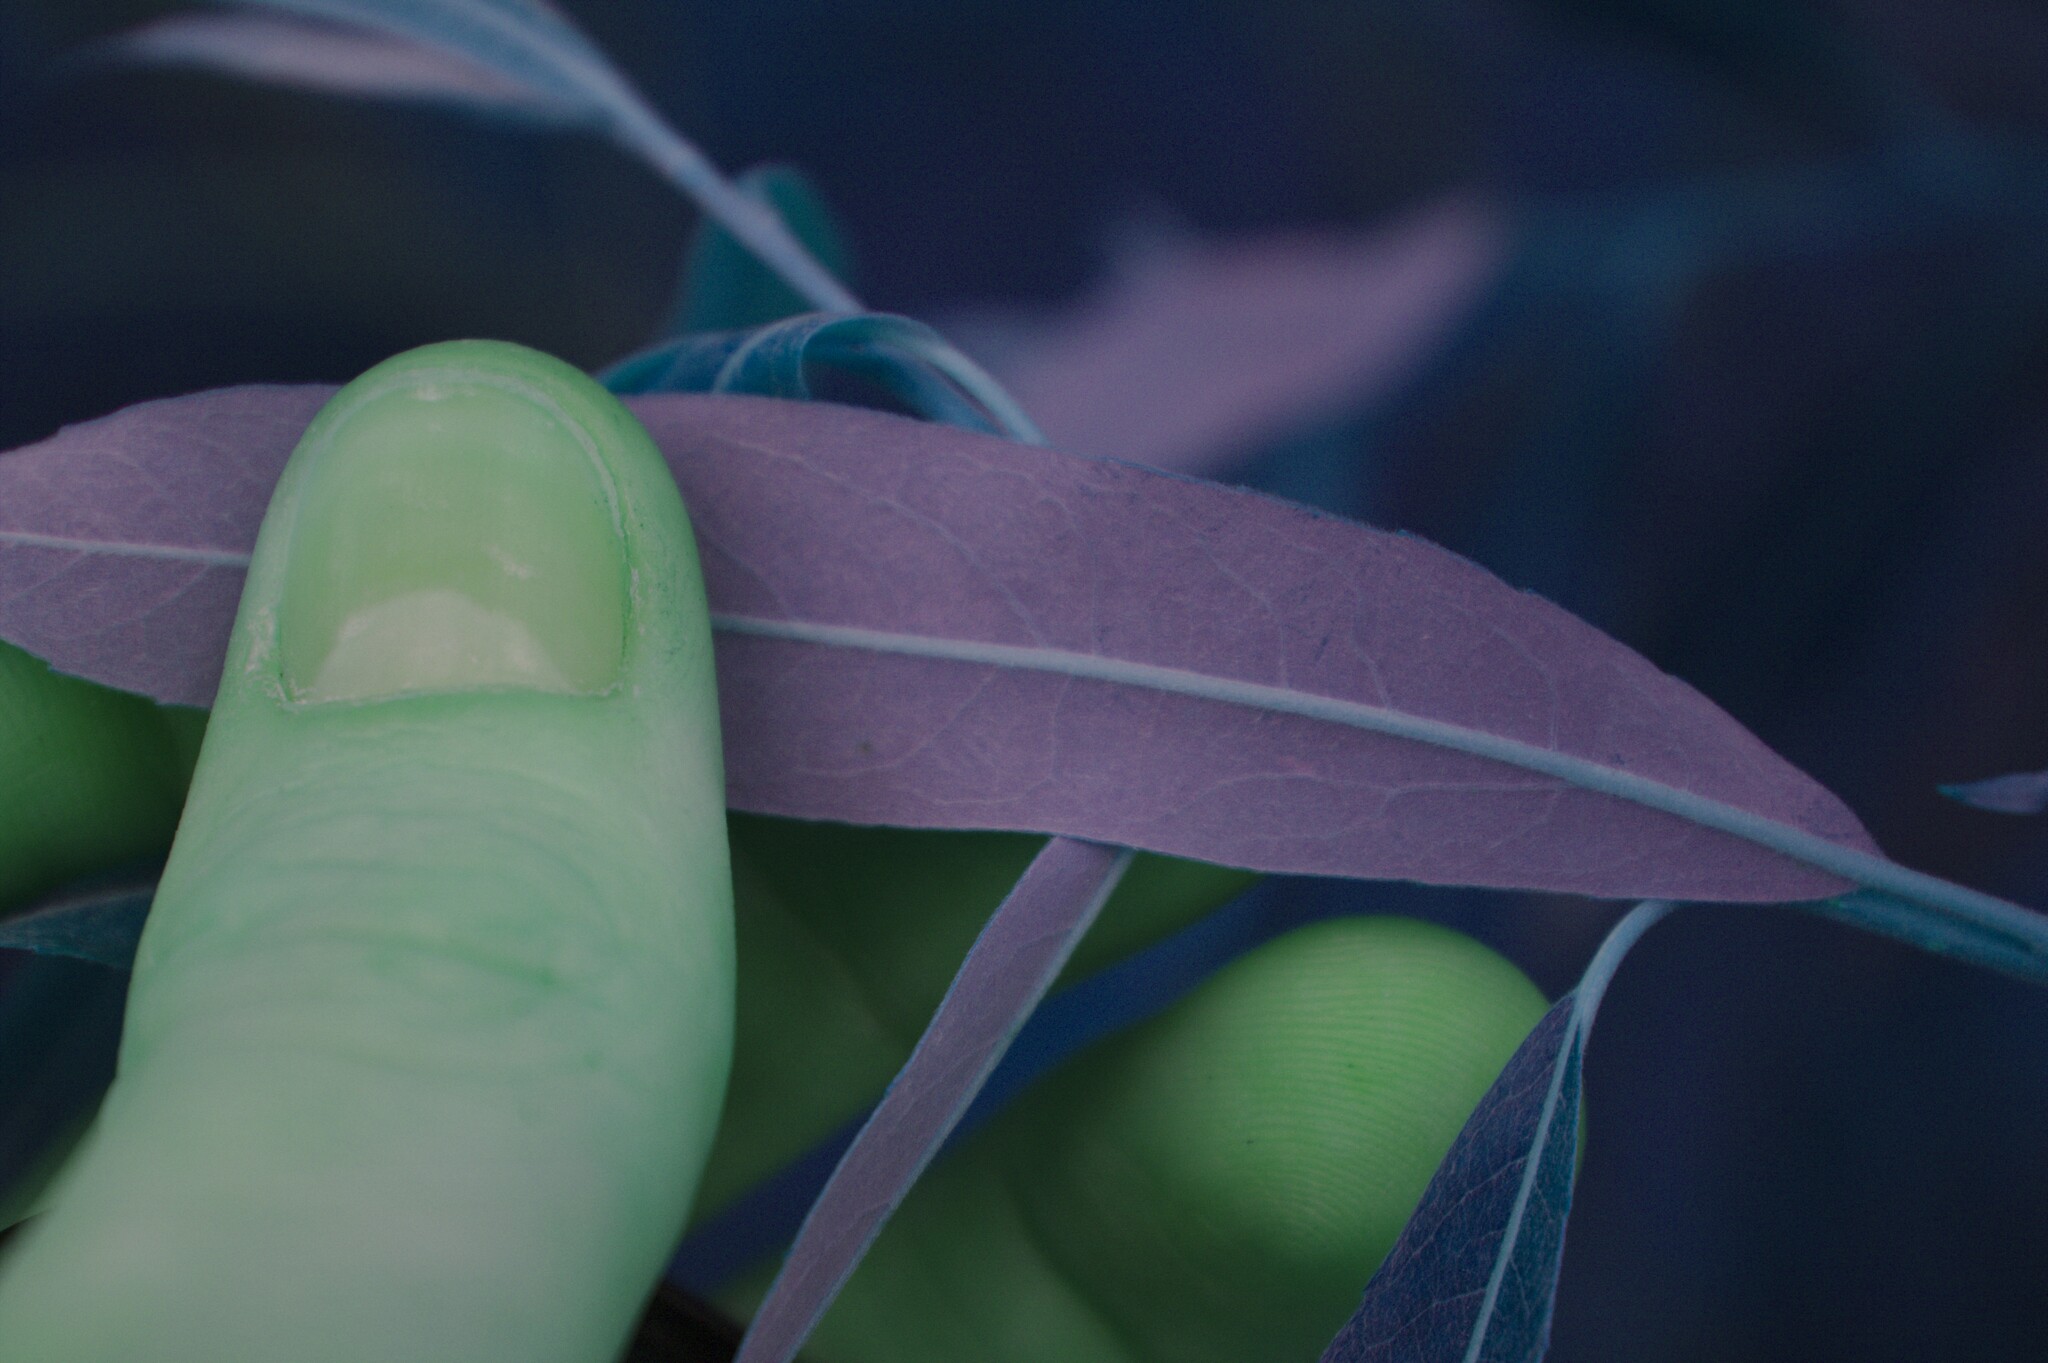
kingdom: Plantae
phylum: Tracheophyta
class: Magnoliopsida
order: Malpighiales
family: Salicaceae
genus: Salix
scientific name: Salix petiolaris
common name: Slender willow
